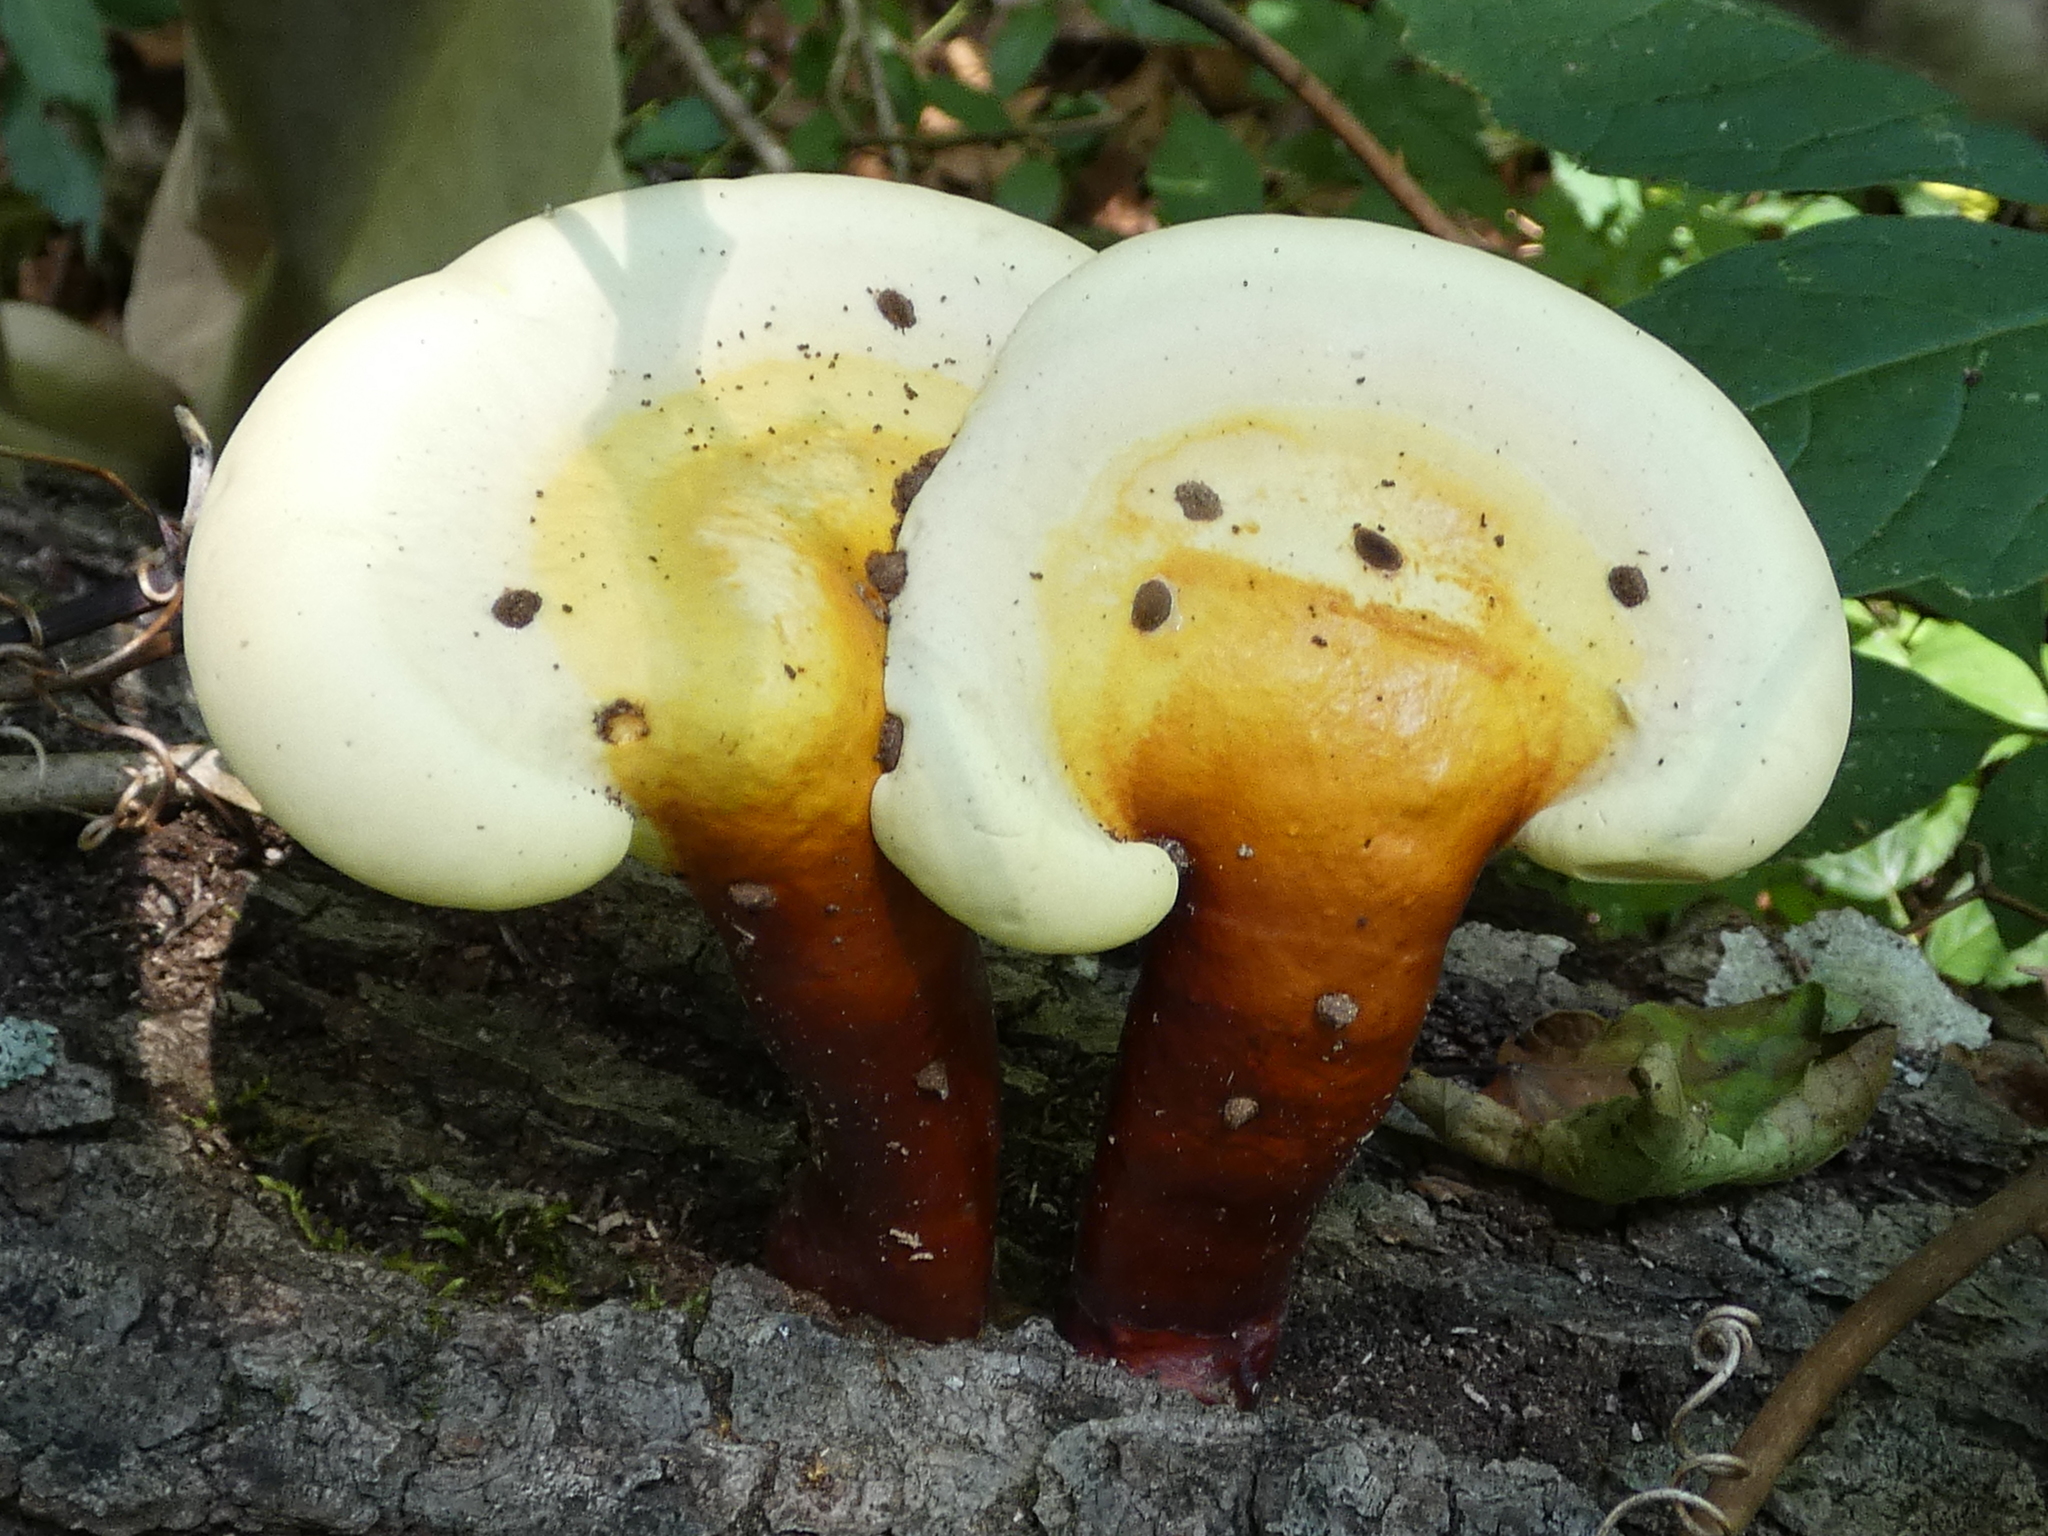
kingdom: Fungi
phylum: Basidiomycota
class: Agaricomycetes
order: Polyporales
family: Polyporaceae
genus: Ganoderma
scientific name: Ganoderma curtisii
